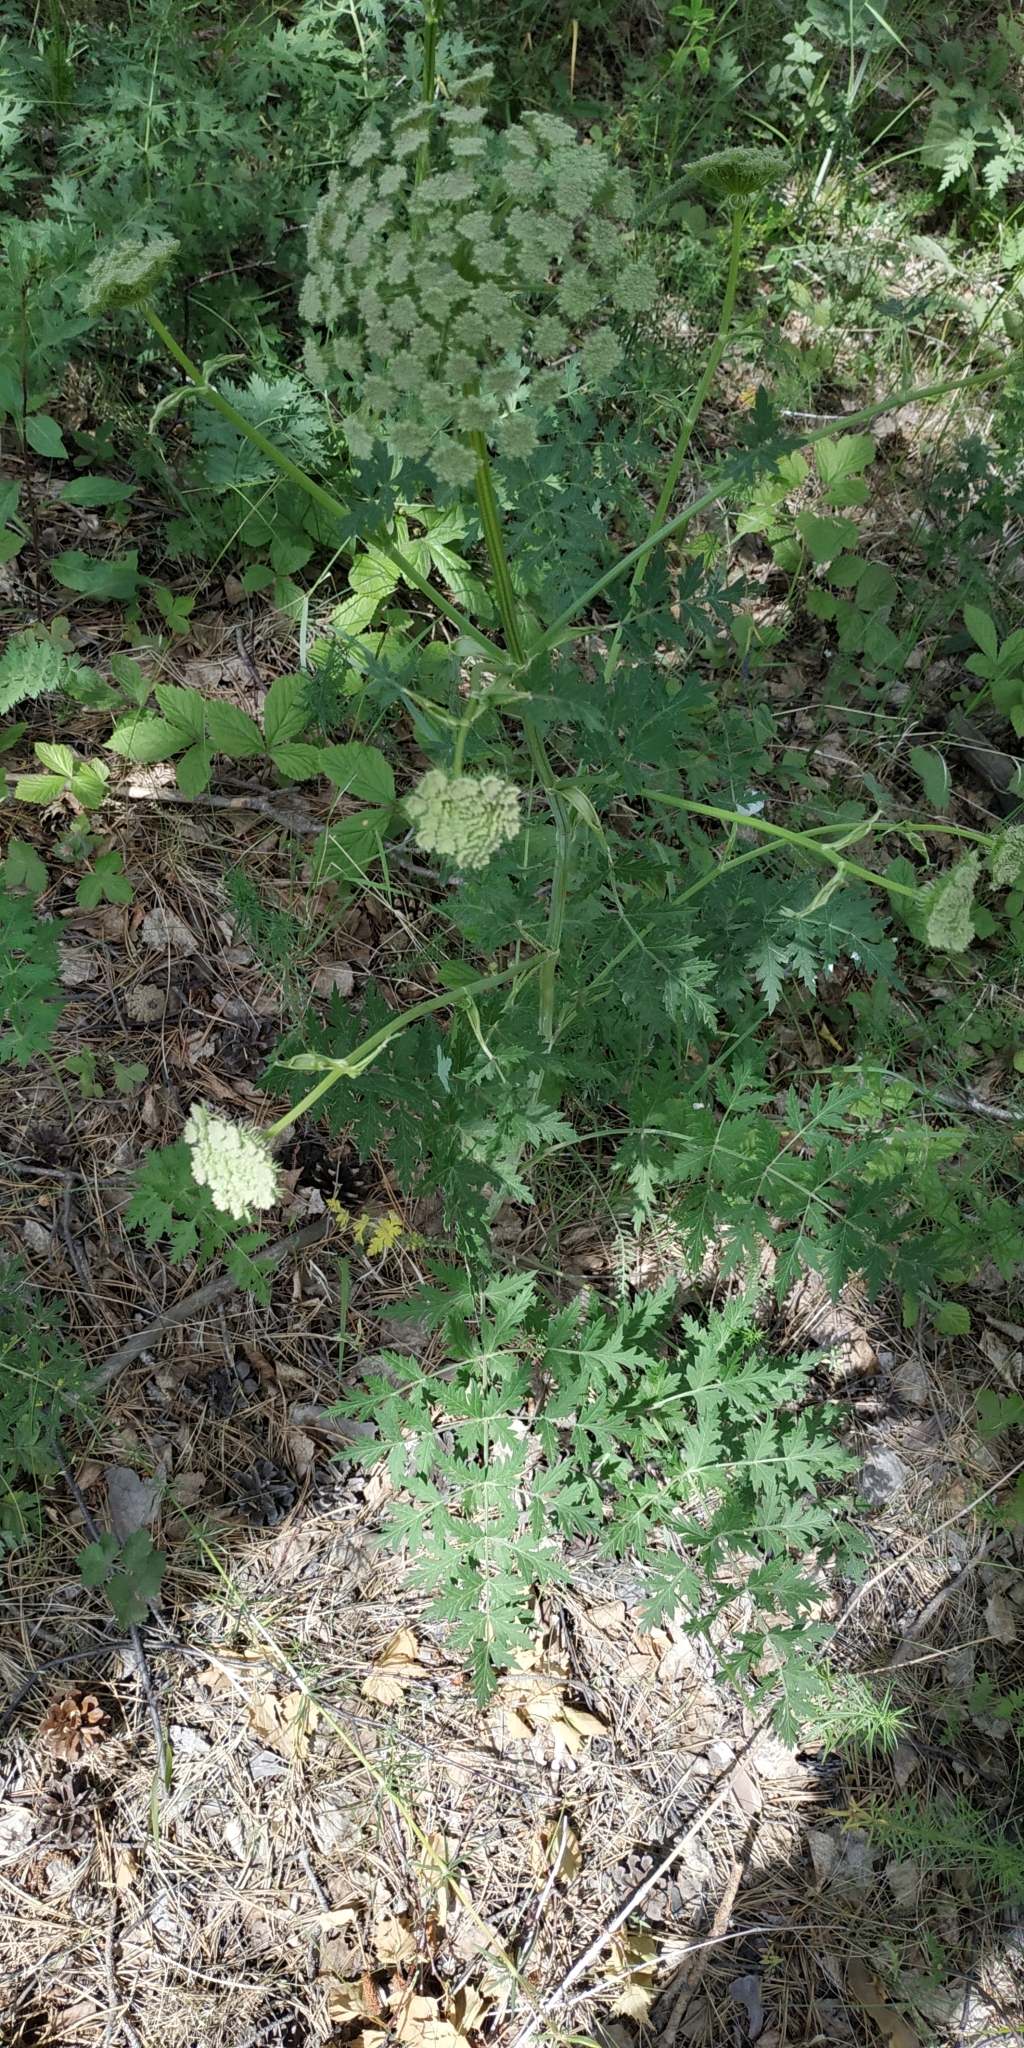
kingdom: Plantae
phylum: Tracheophyta
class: Magnoliopsida
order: Apiales
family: Apiaceae
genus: Seseli
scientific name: Seseli libanotis
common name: Mooncarrot
